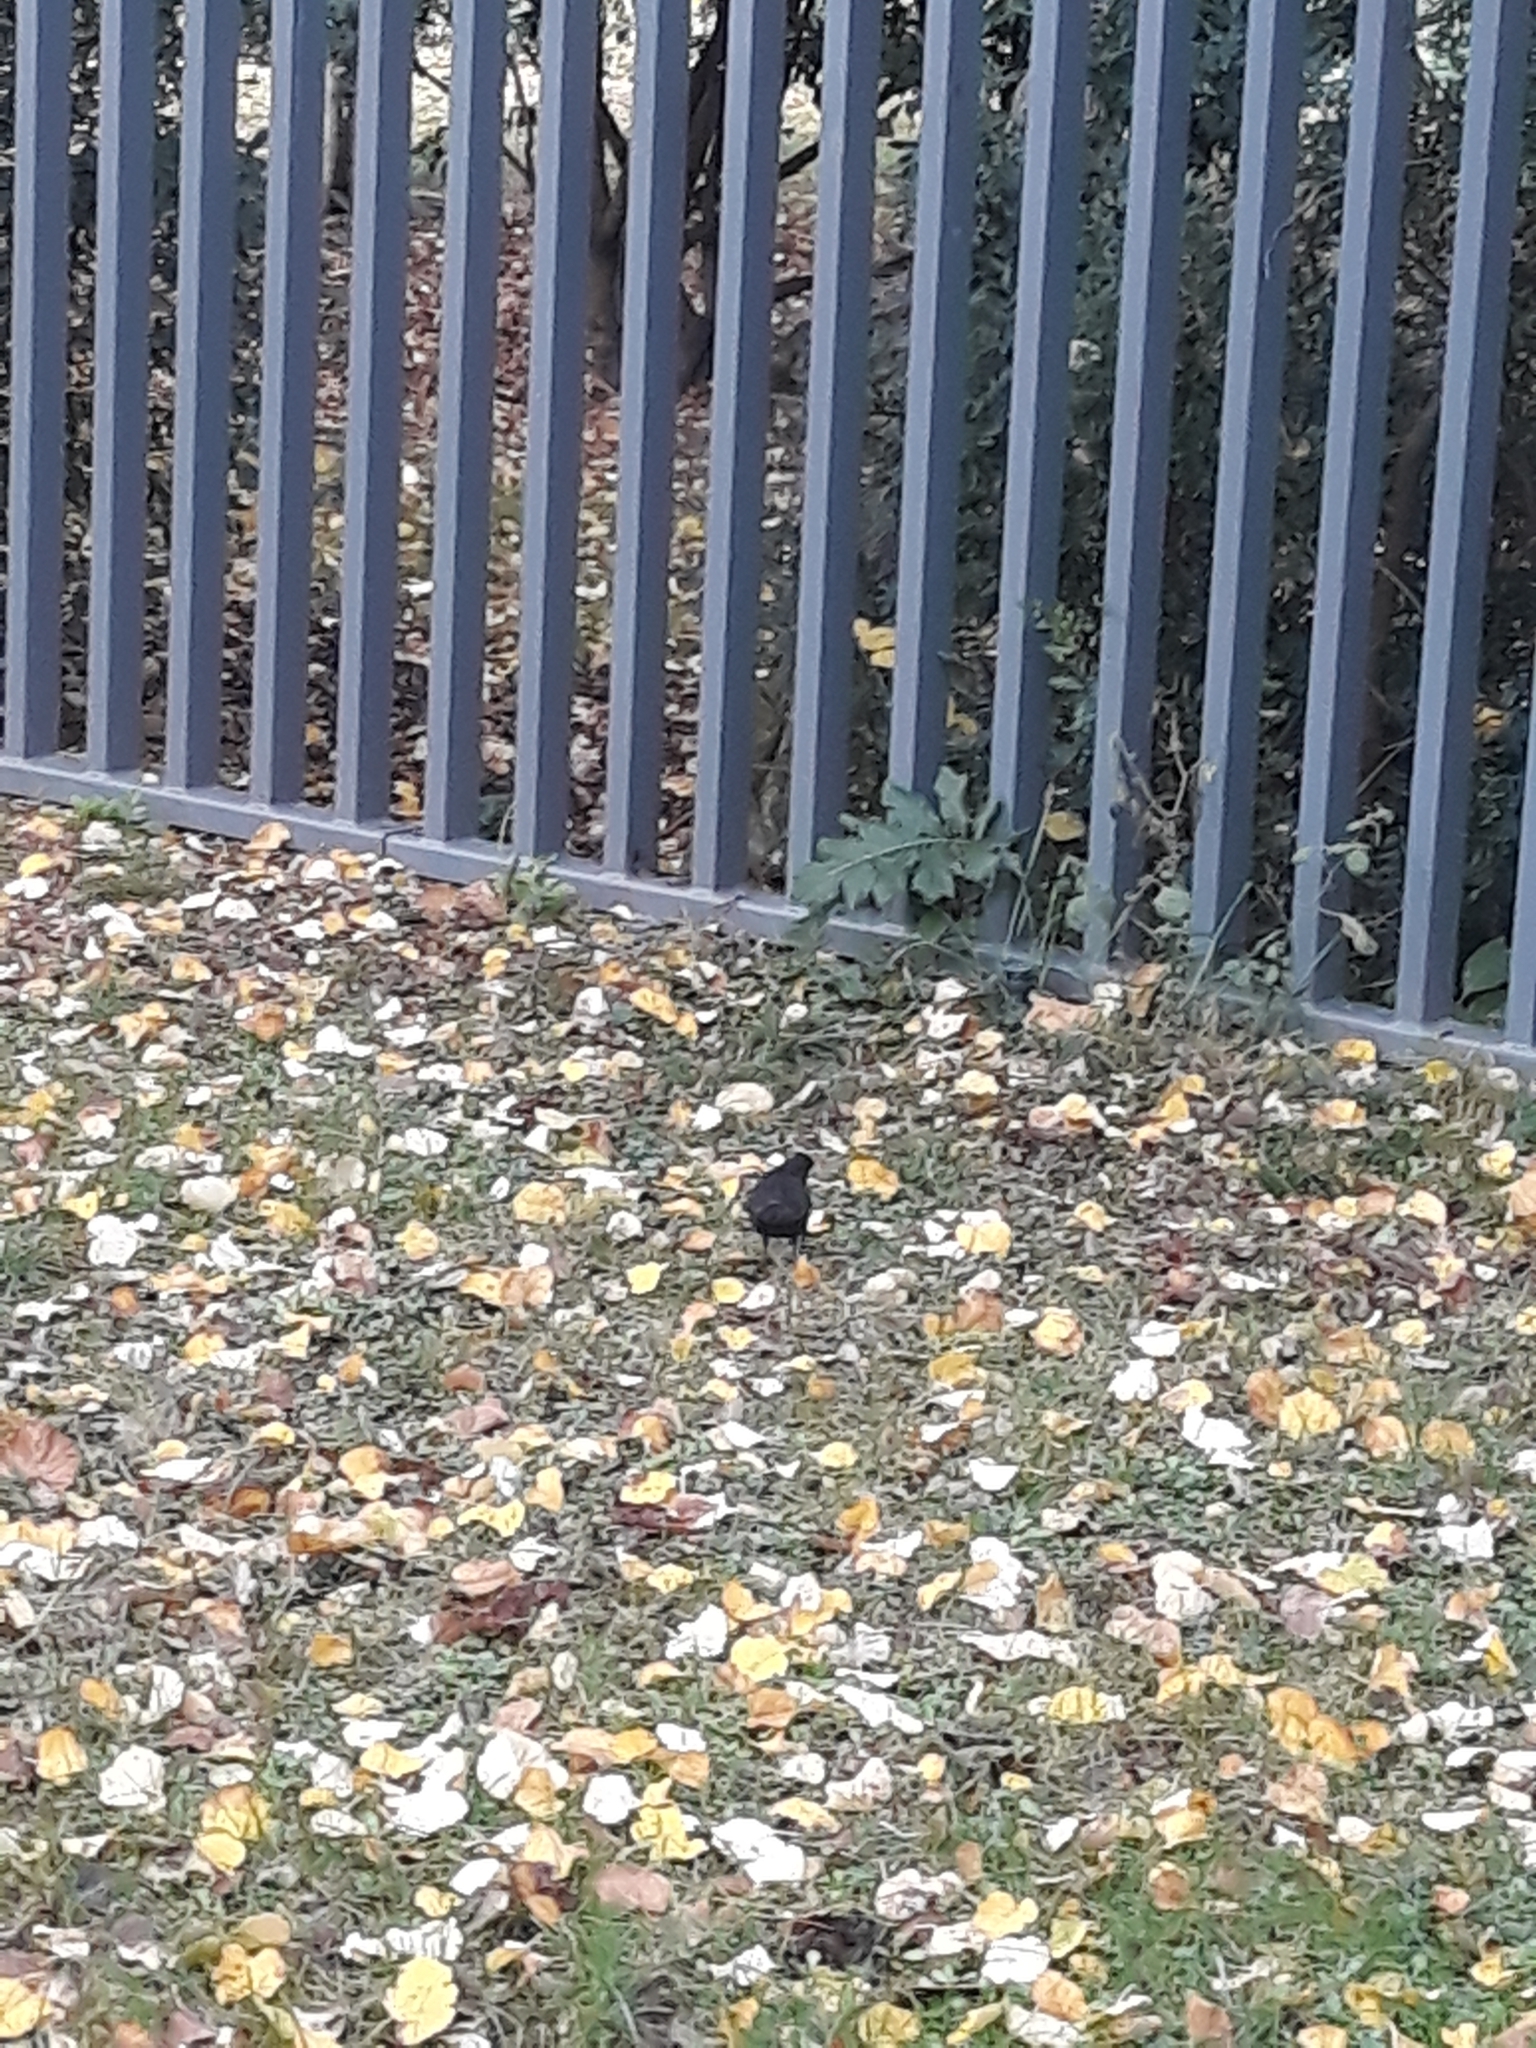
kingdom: Animalia
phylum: Chordata
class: Aves
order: Passeriformes
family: Turdidae
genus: Turdus
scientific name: Turdus merula
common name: Common blackbird
